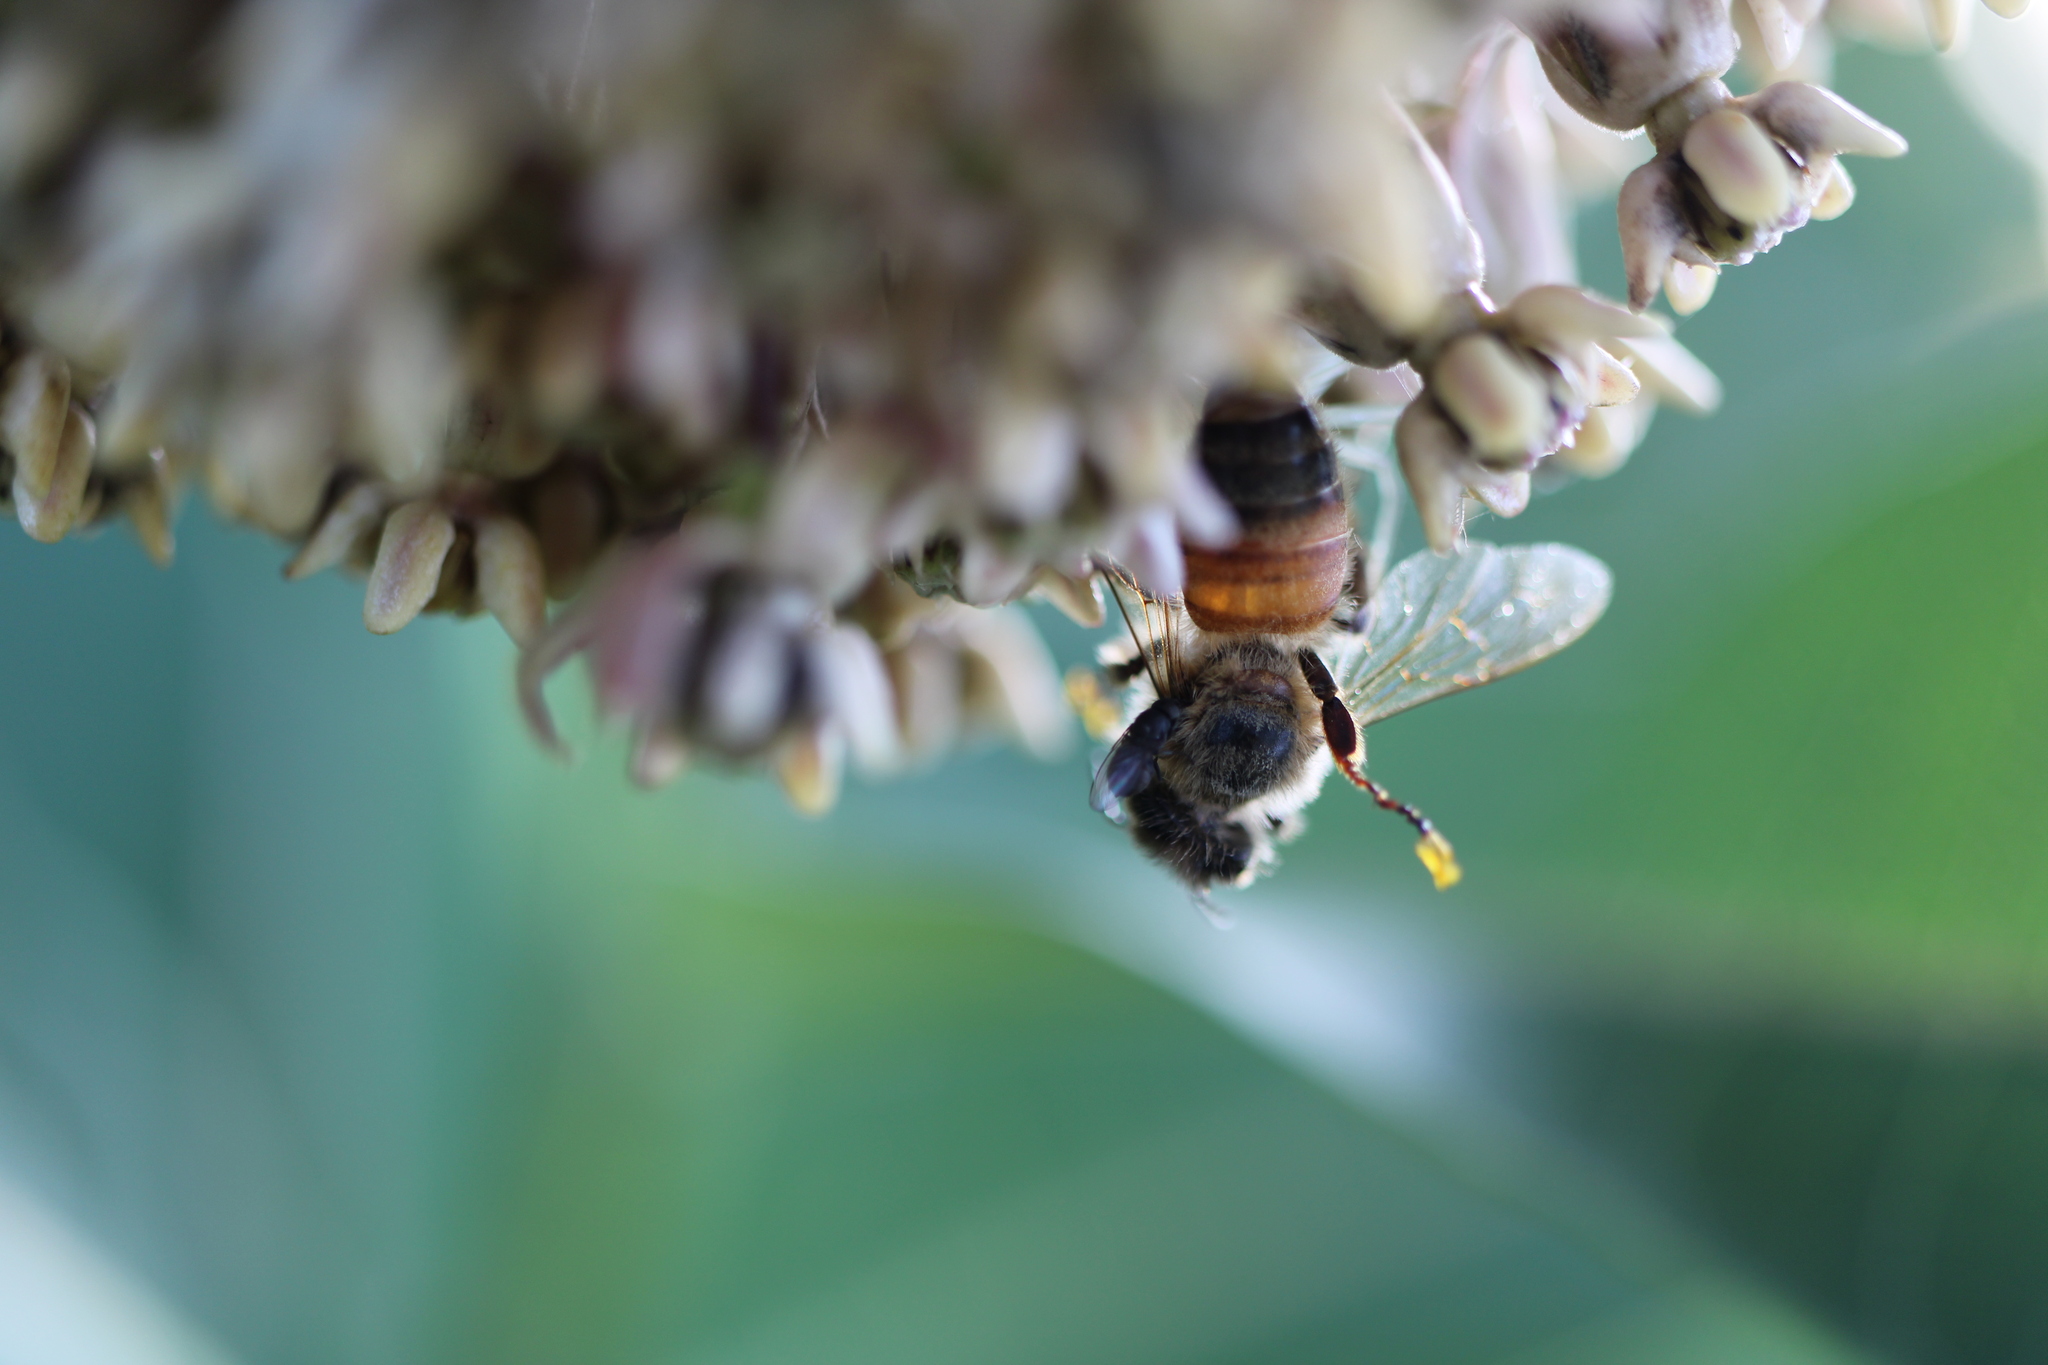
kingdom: Animalia
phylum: Arthropoda
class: Insecta
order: Hymenoptera
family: Apidae
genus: Apis
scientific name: Apis mellifera
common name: Honey bee
